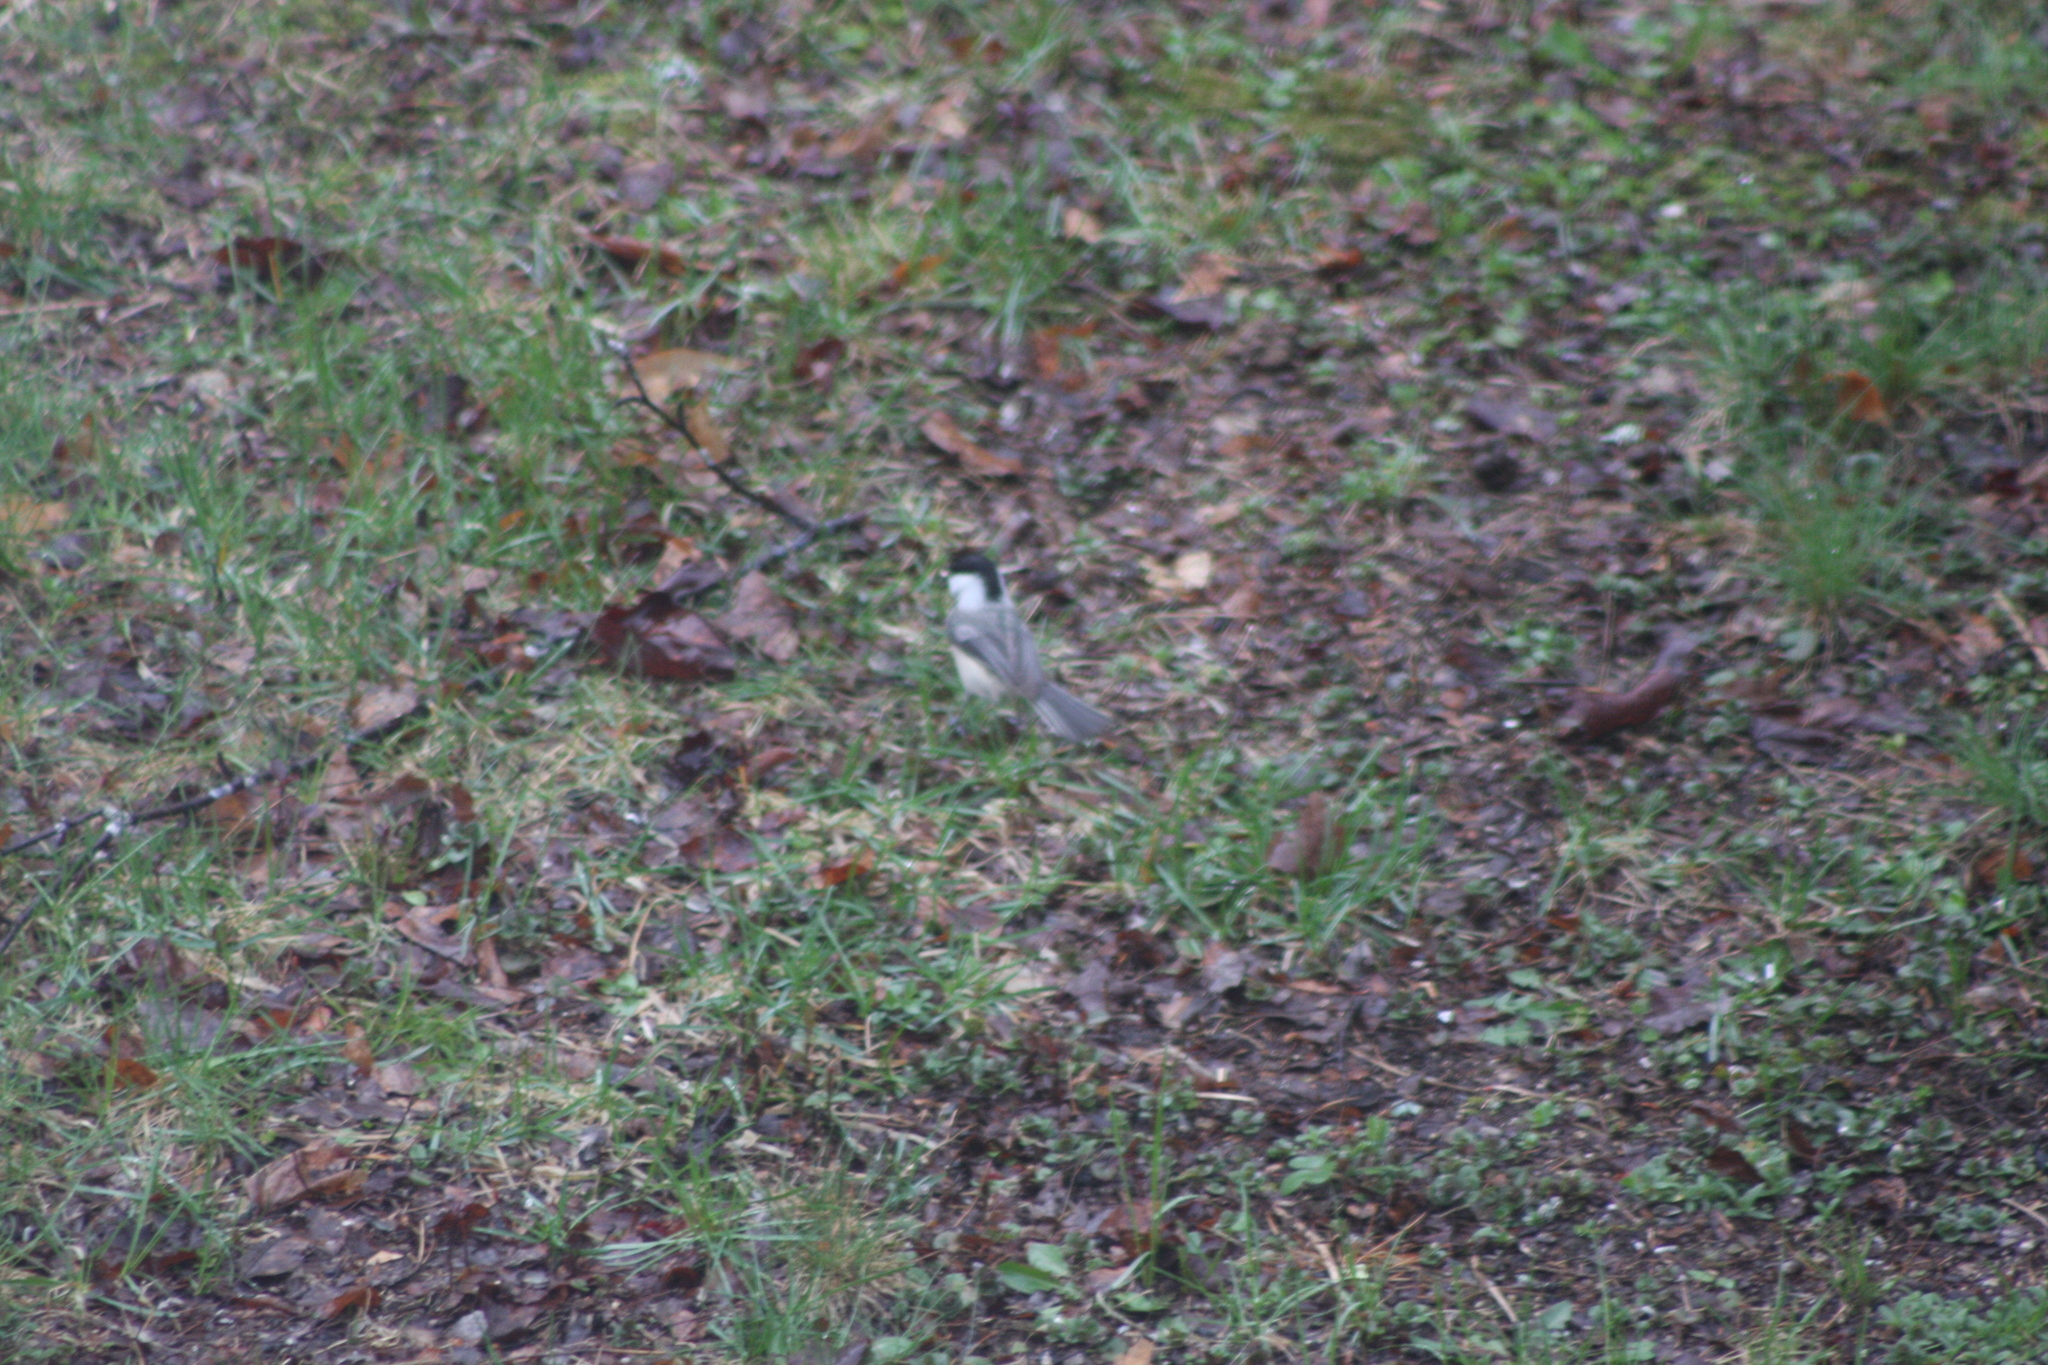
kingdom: Animalia
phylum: Chordata
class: Aves
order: Passeriformes
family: Paridae
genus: Poecile
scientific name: Poecile atricapillus
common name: Black-capped chickadee
